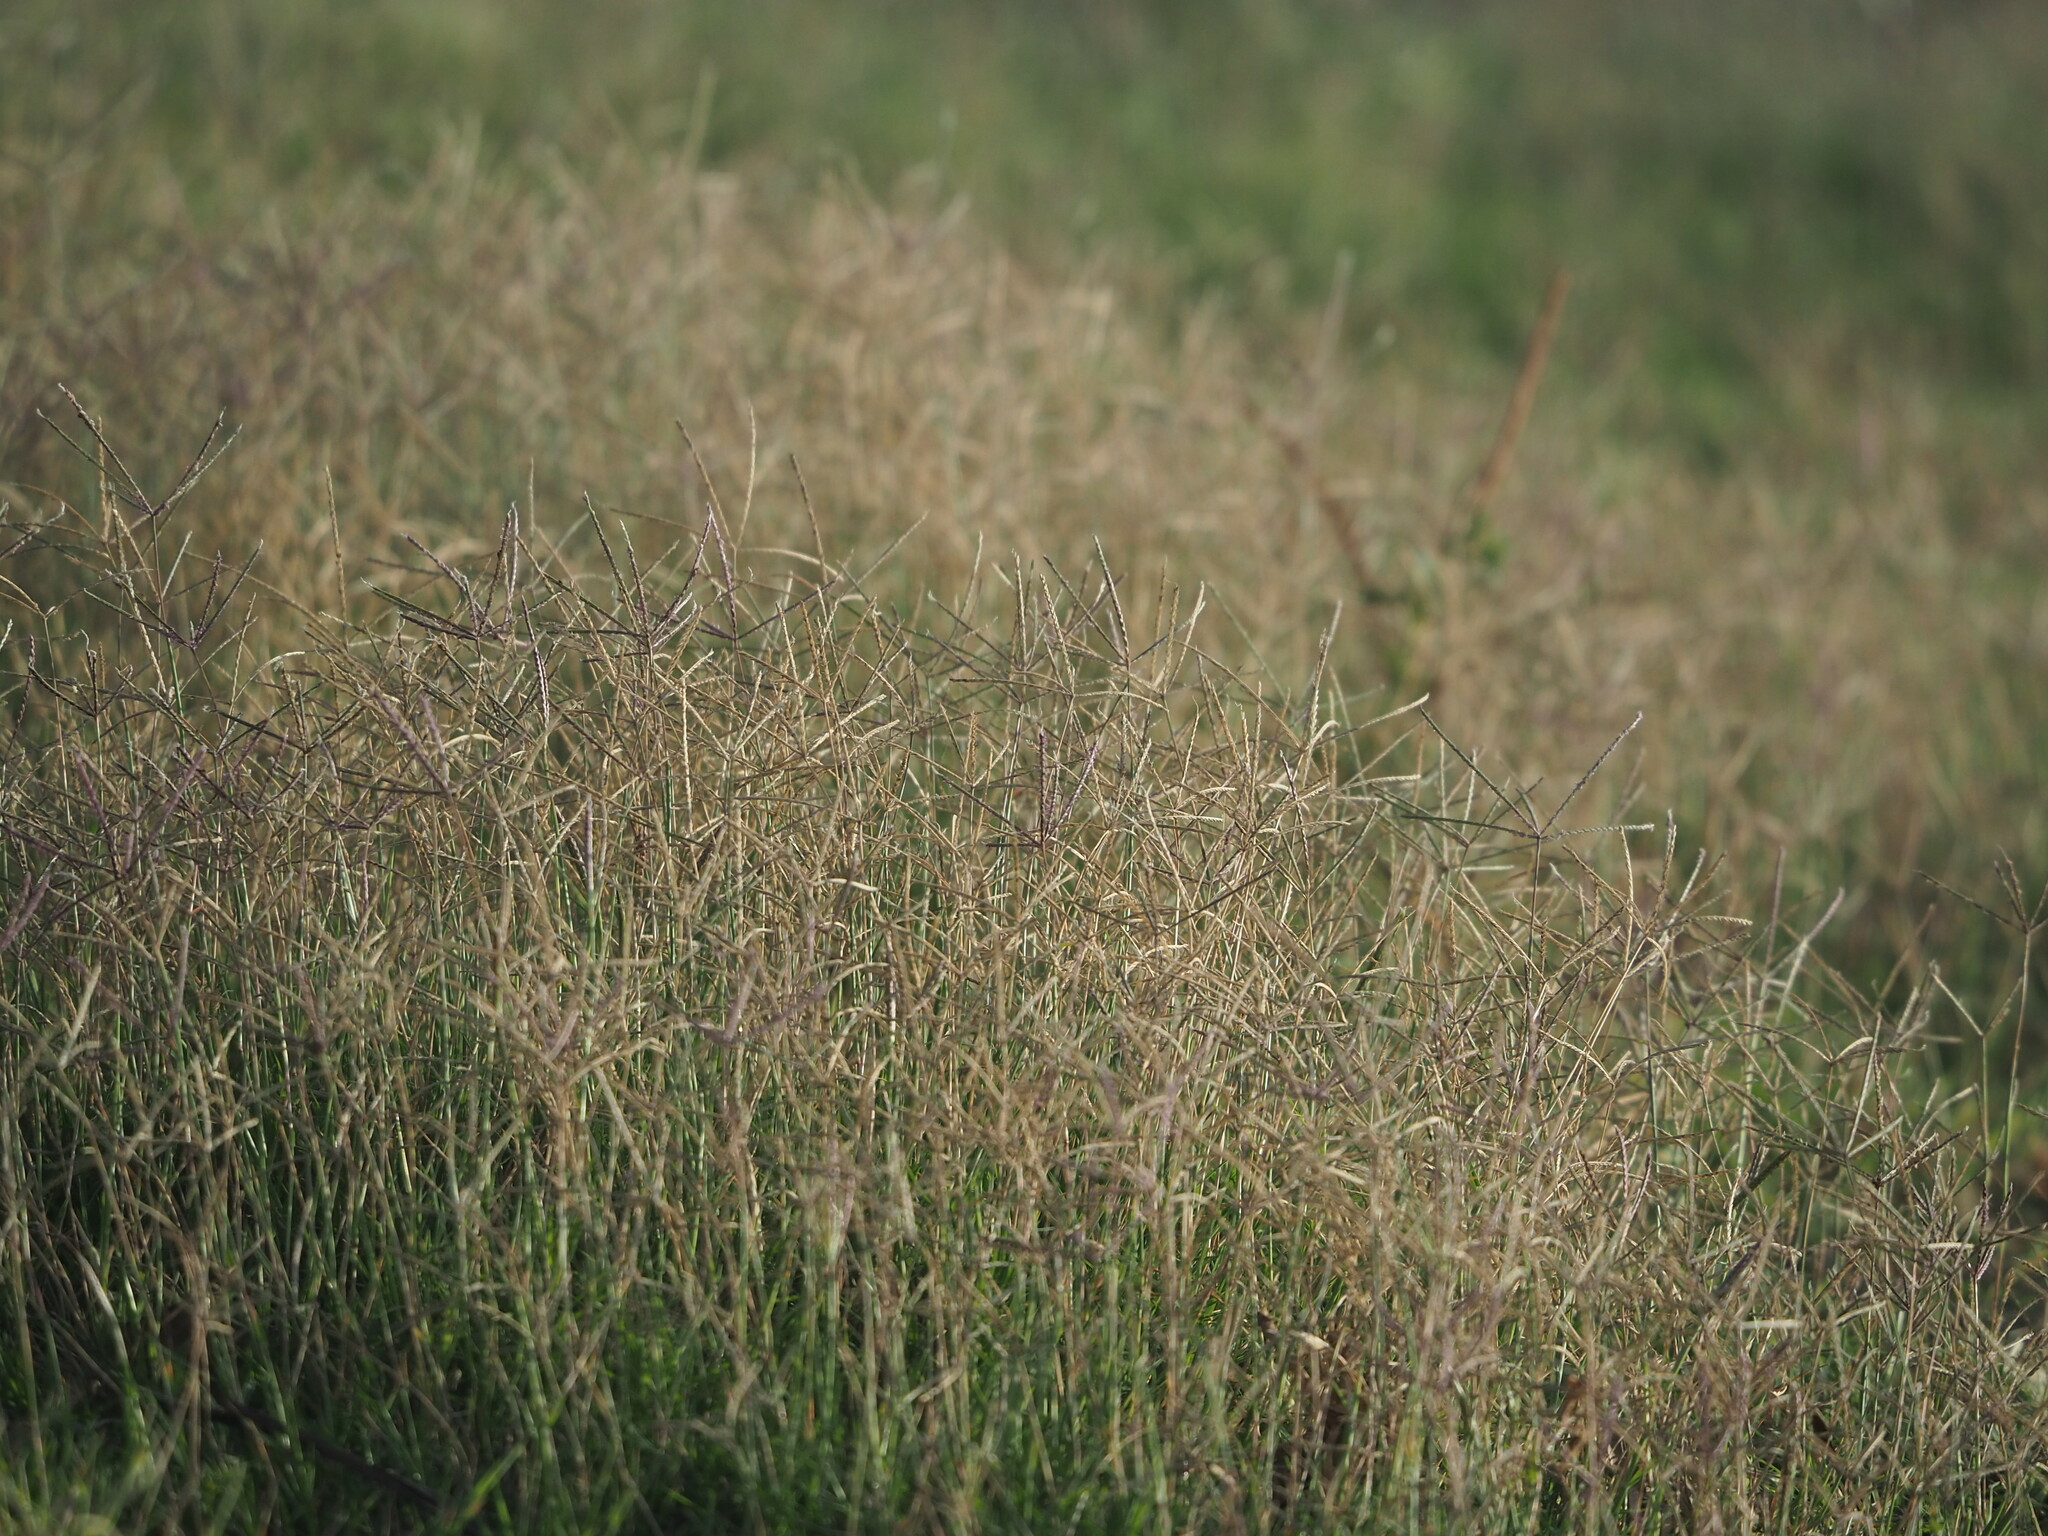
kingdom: Plantae
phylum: Tracheophyta
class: Liliopsida
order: Poales
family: Poaceae
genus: Cynodon
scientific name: Cynodon dactylon
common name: Bermuda grass
